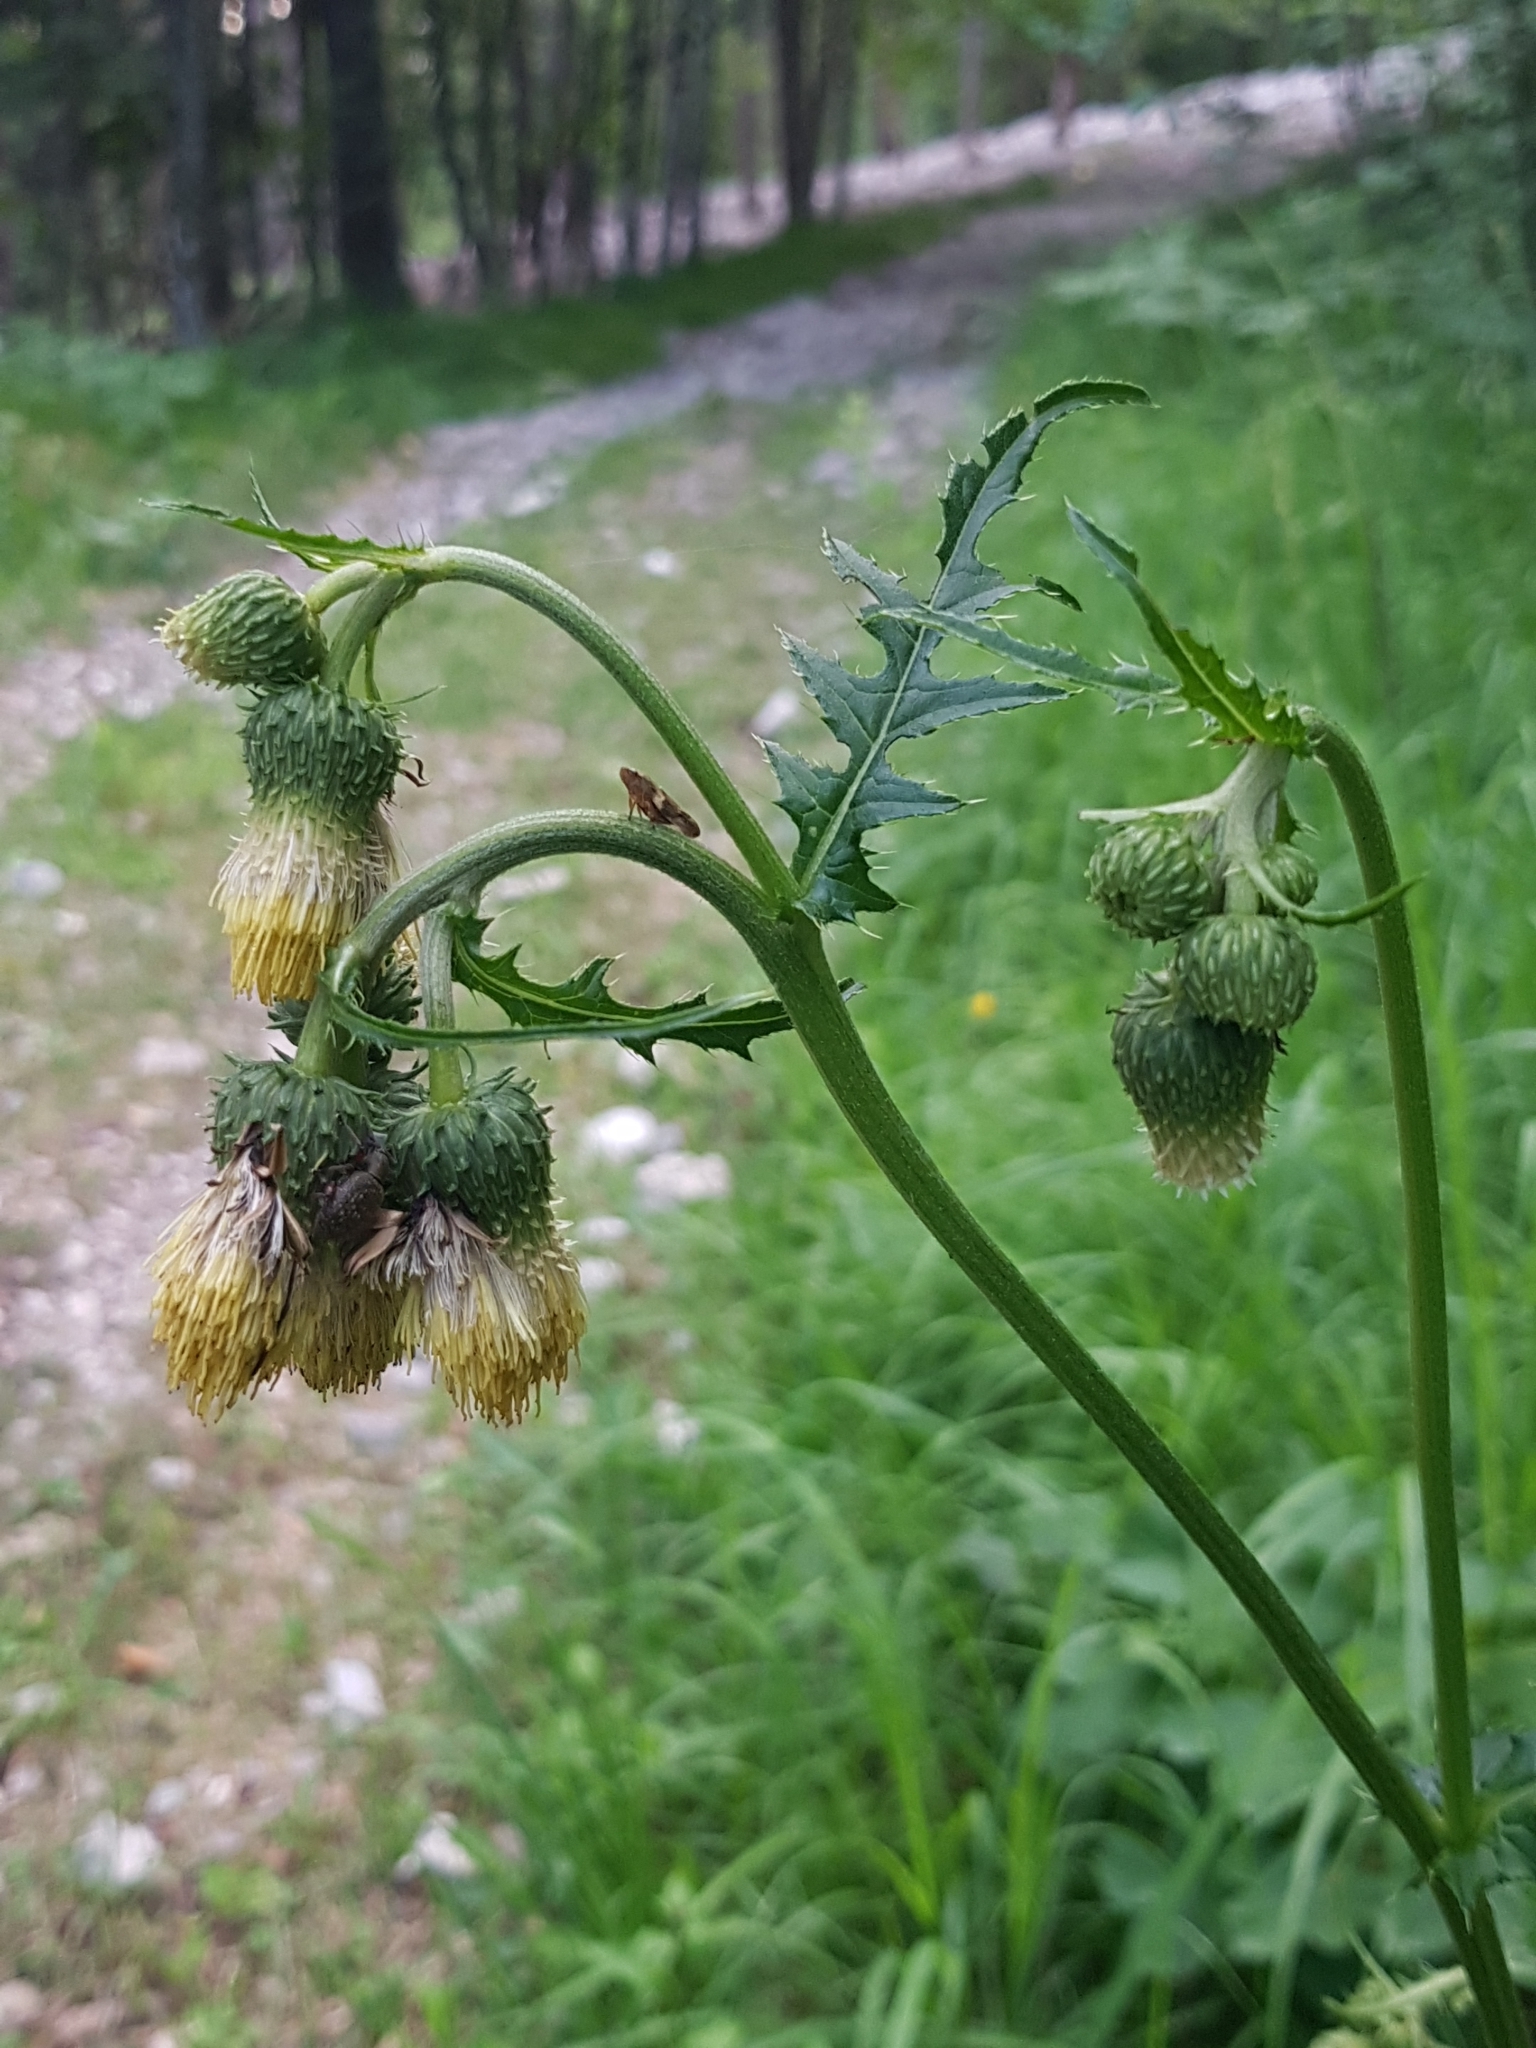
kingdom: Plantae
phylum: Tracheophyta
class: Magnoliopsida
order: Asterales
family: Asteraceae
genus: Cirsium
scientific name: Cirsium erisithales
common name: Yellow thistle
